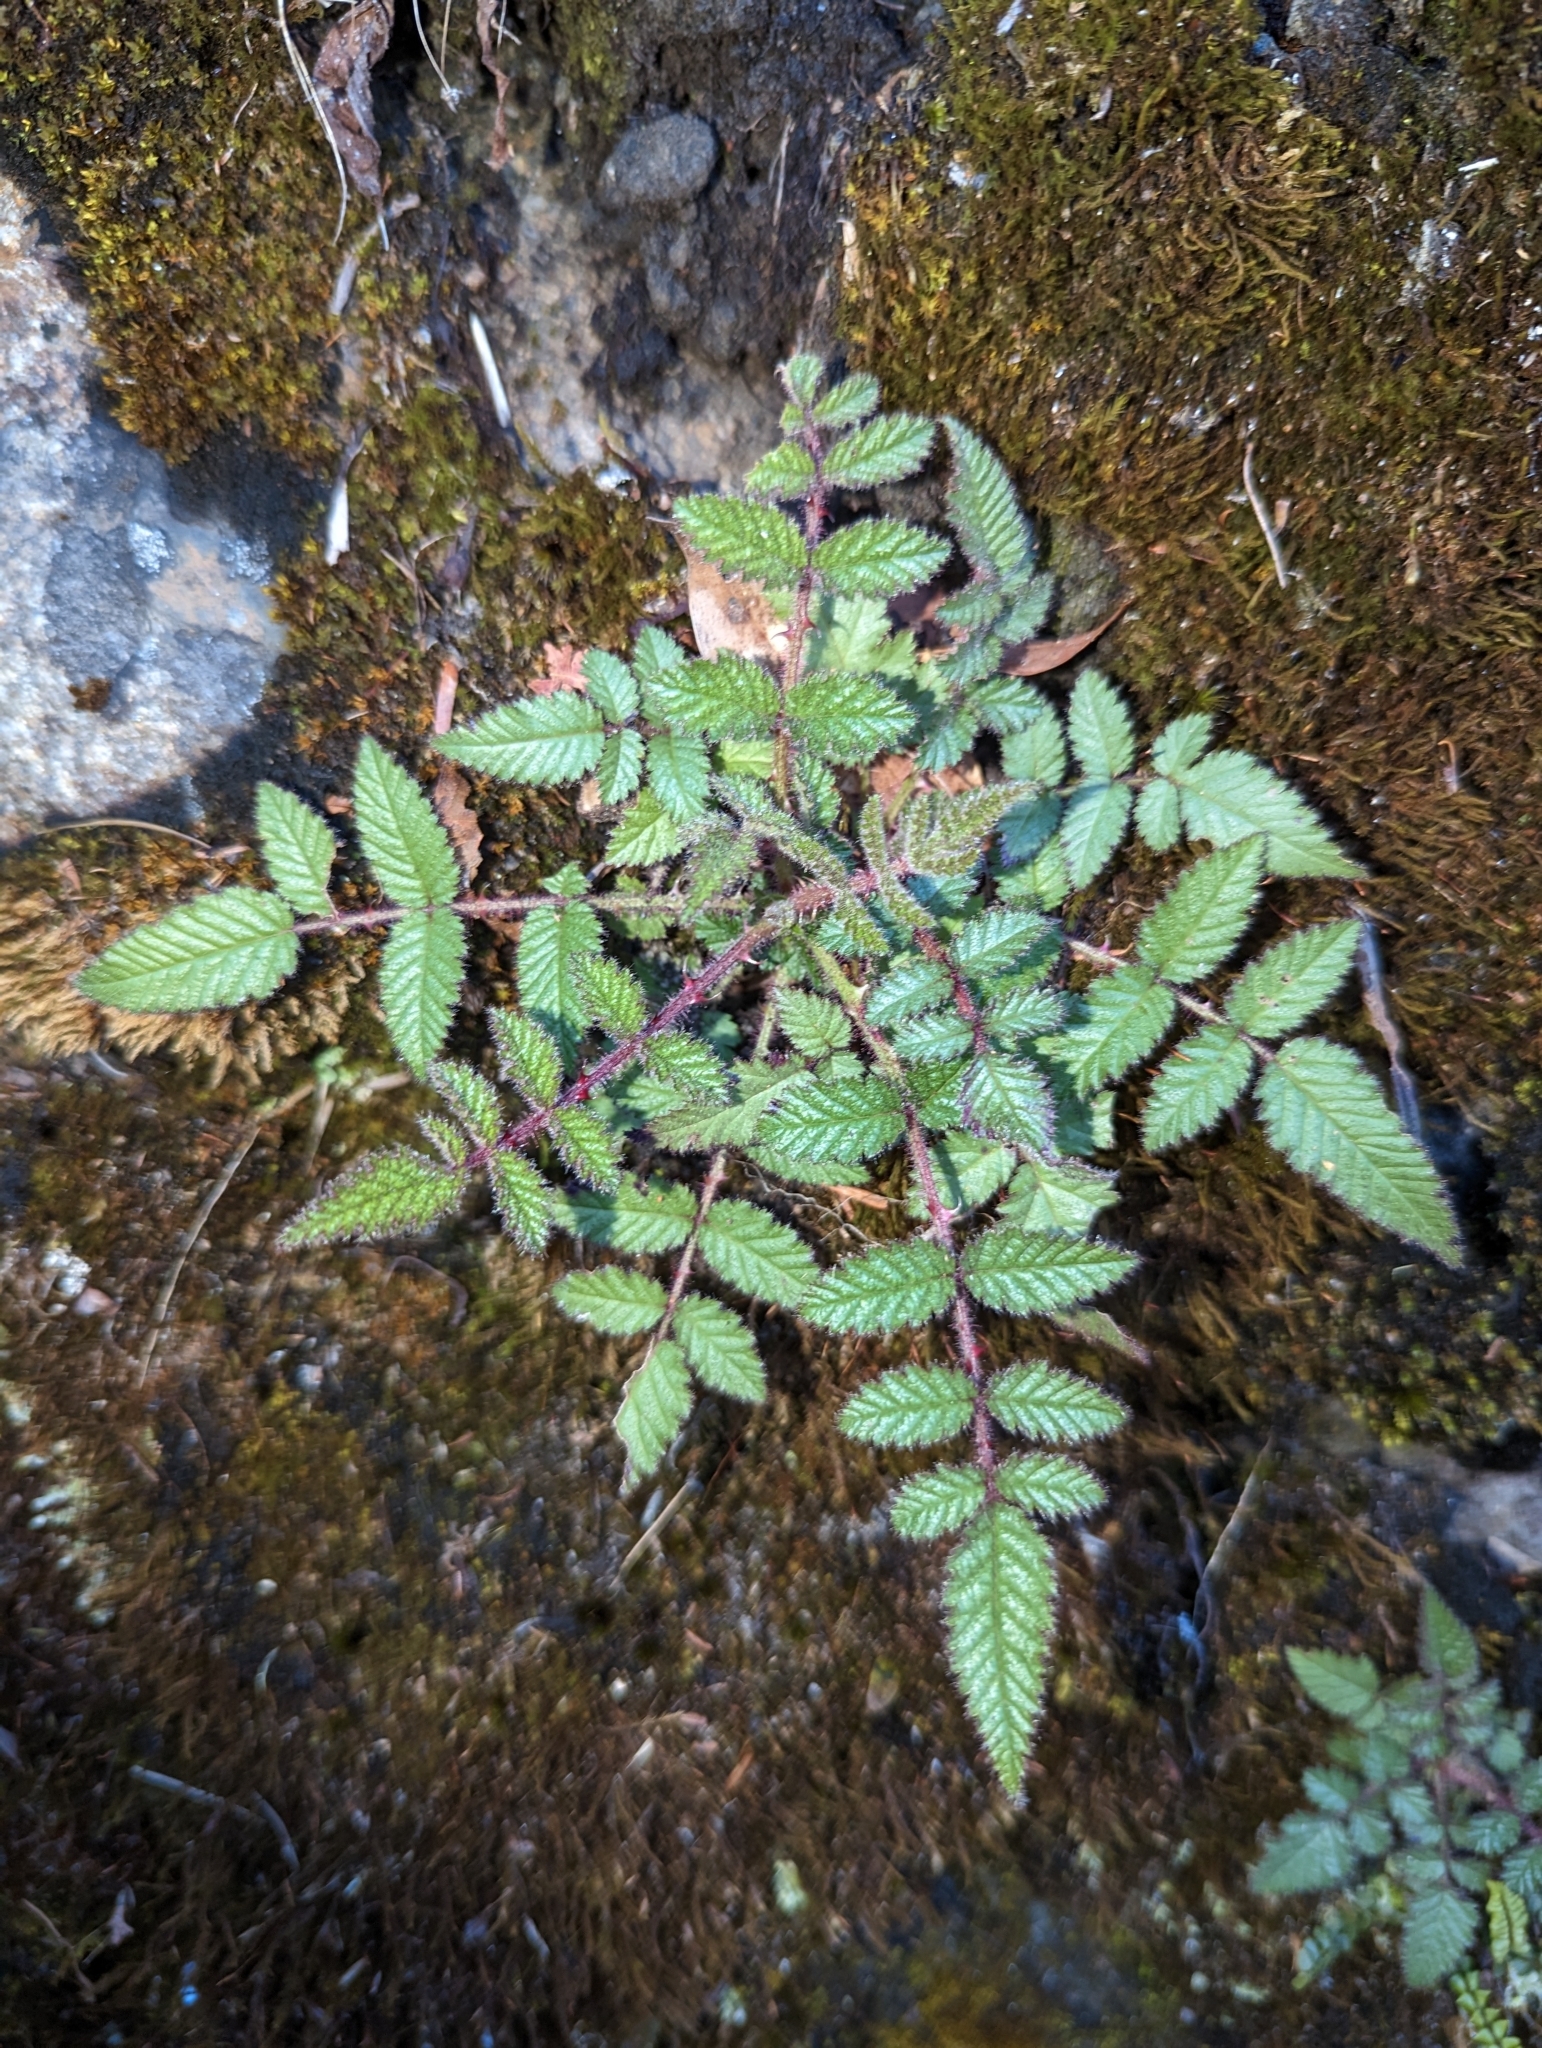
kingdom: Plantae
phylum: Tracheophyta
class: Magnoliopsida
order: Rosales
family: Rosaceae
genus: Rubus
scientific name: Rubus croceacanthus
